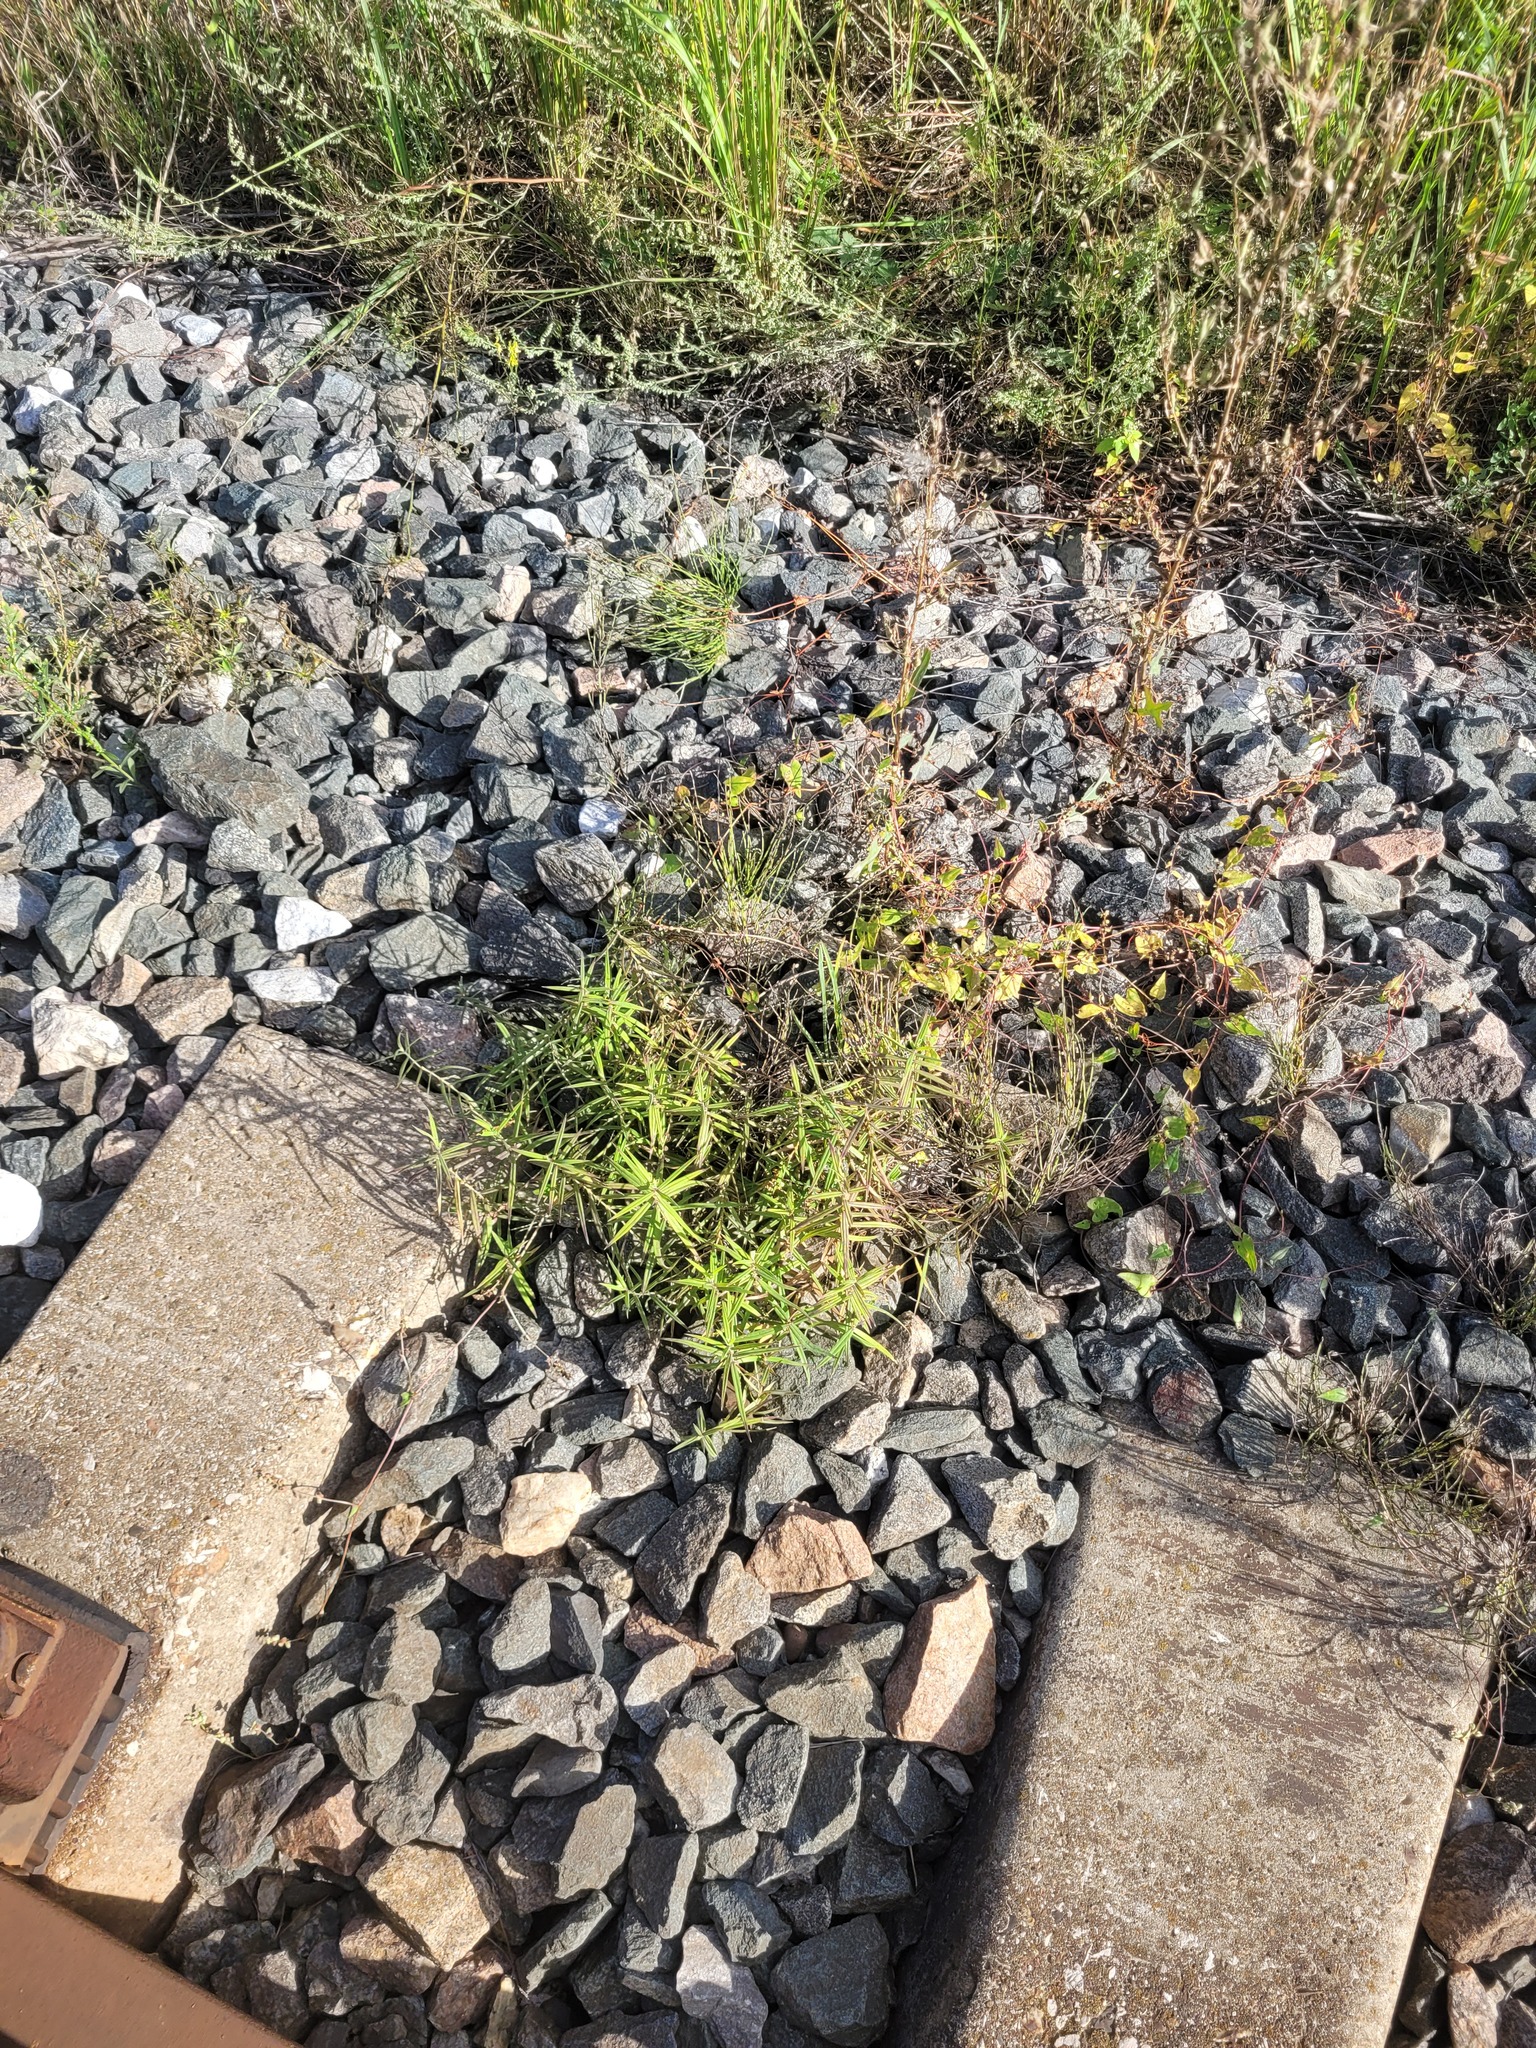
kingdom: Plantae
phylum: Tracheophyta
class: Magnoliopsida
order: Caryophyllales
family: Caryophyllaceae
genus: Rabelera
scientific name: Rabelera holostea
